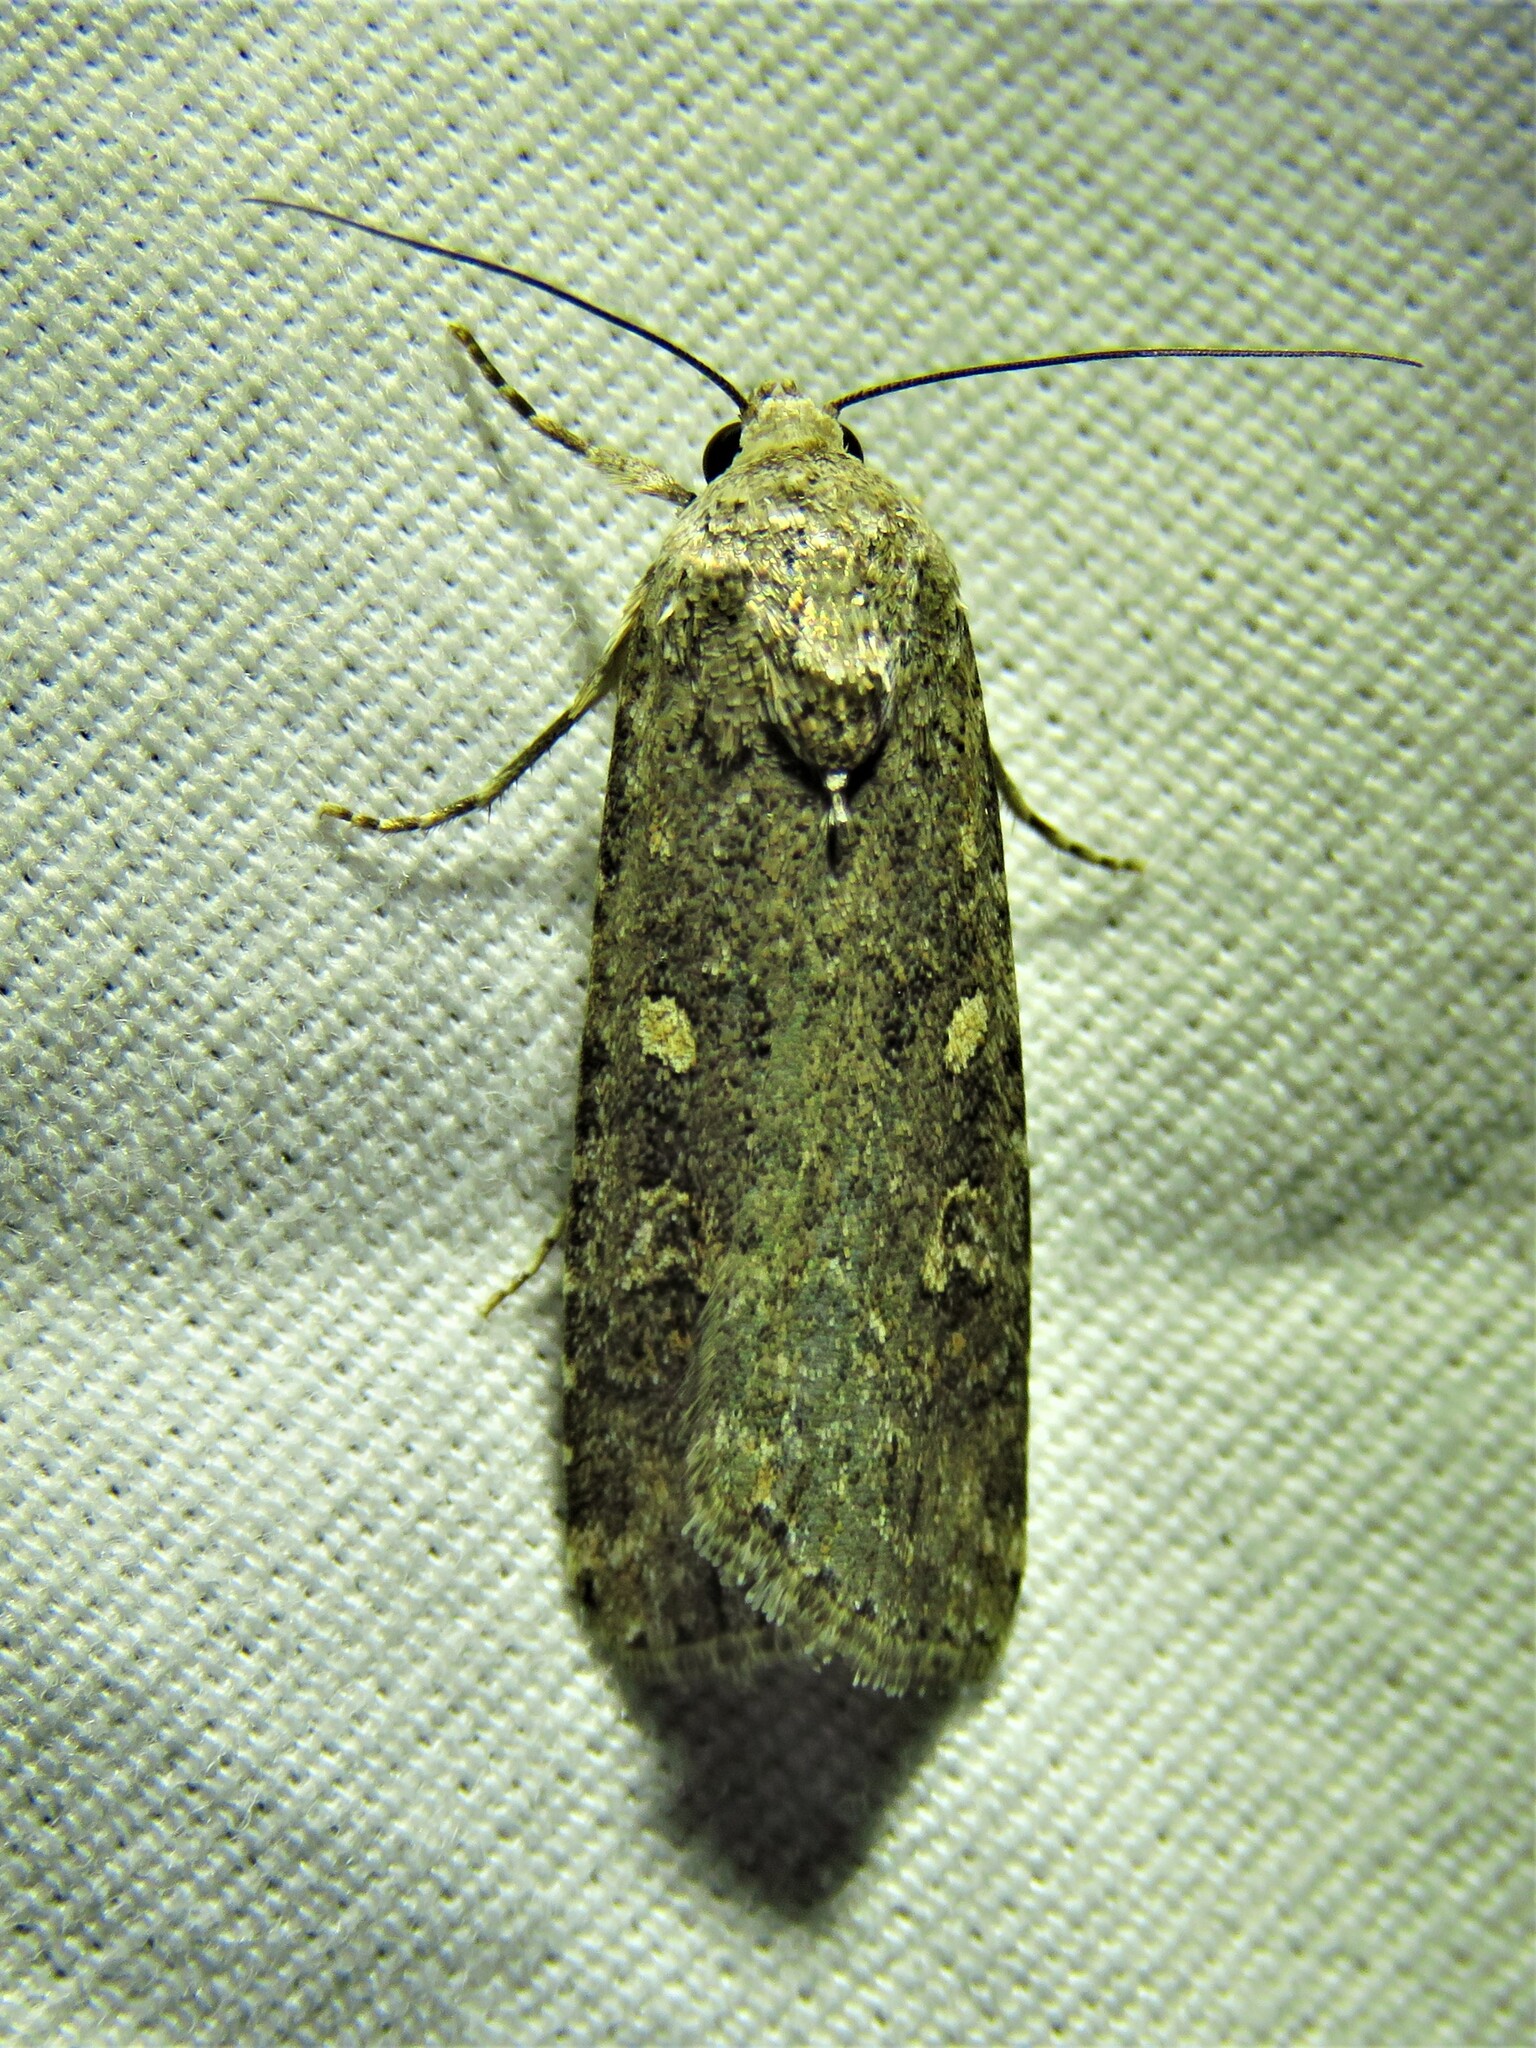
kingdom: Animalia
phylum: Arthropoda
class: Insecta
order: Lepidoptera
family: Noctuidae
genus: Spodoptera
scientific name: Spodoptera exigua
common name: Beet armyworm
